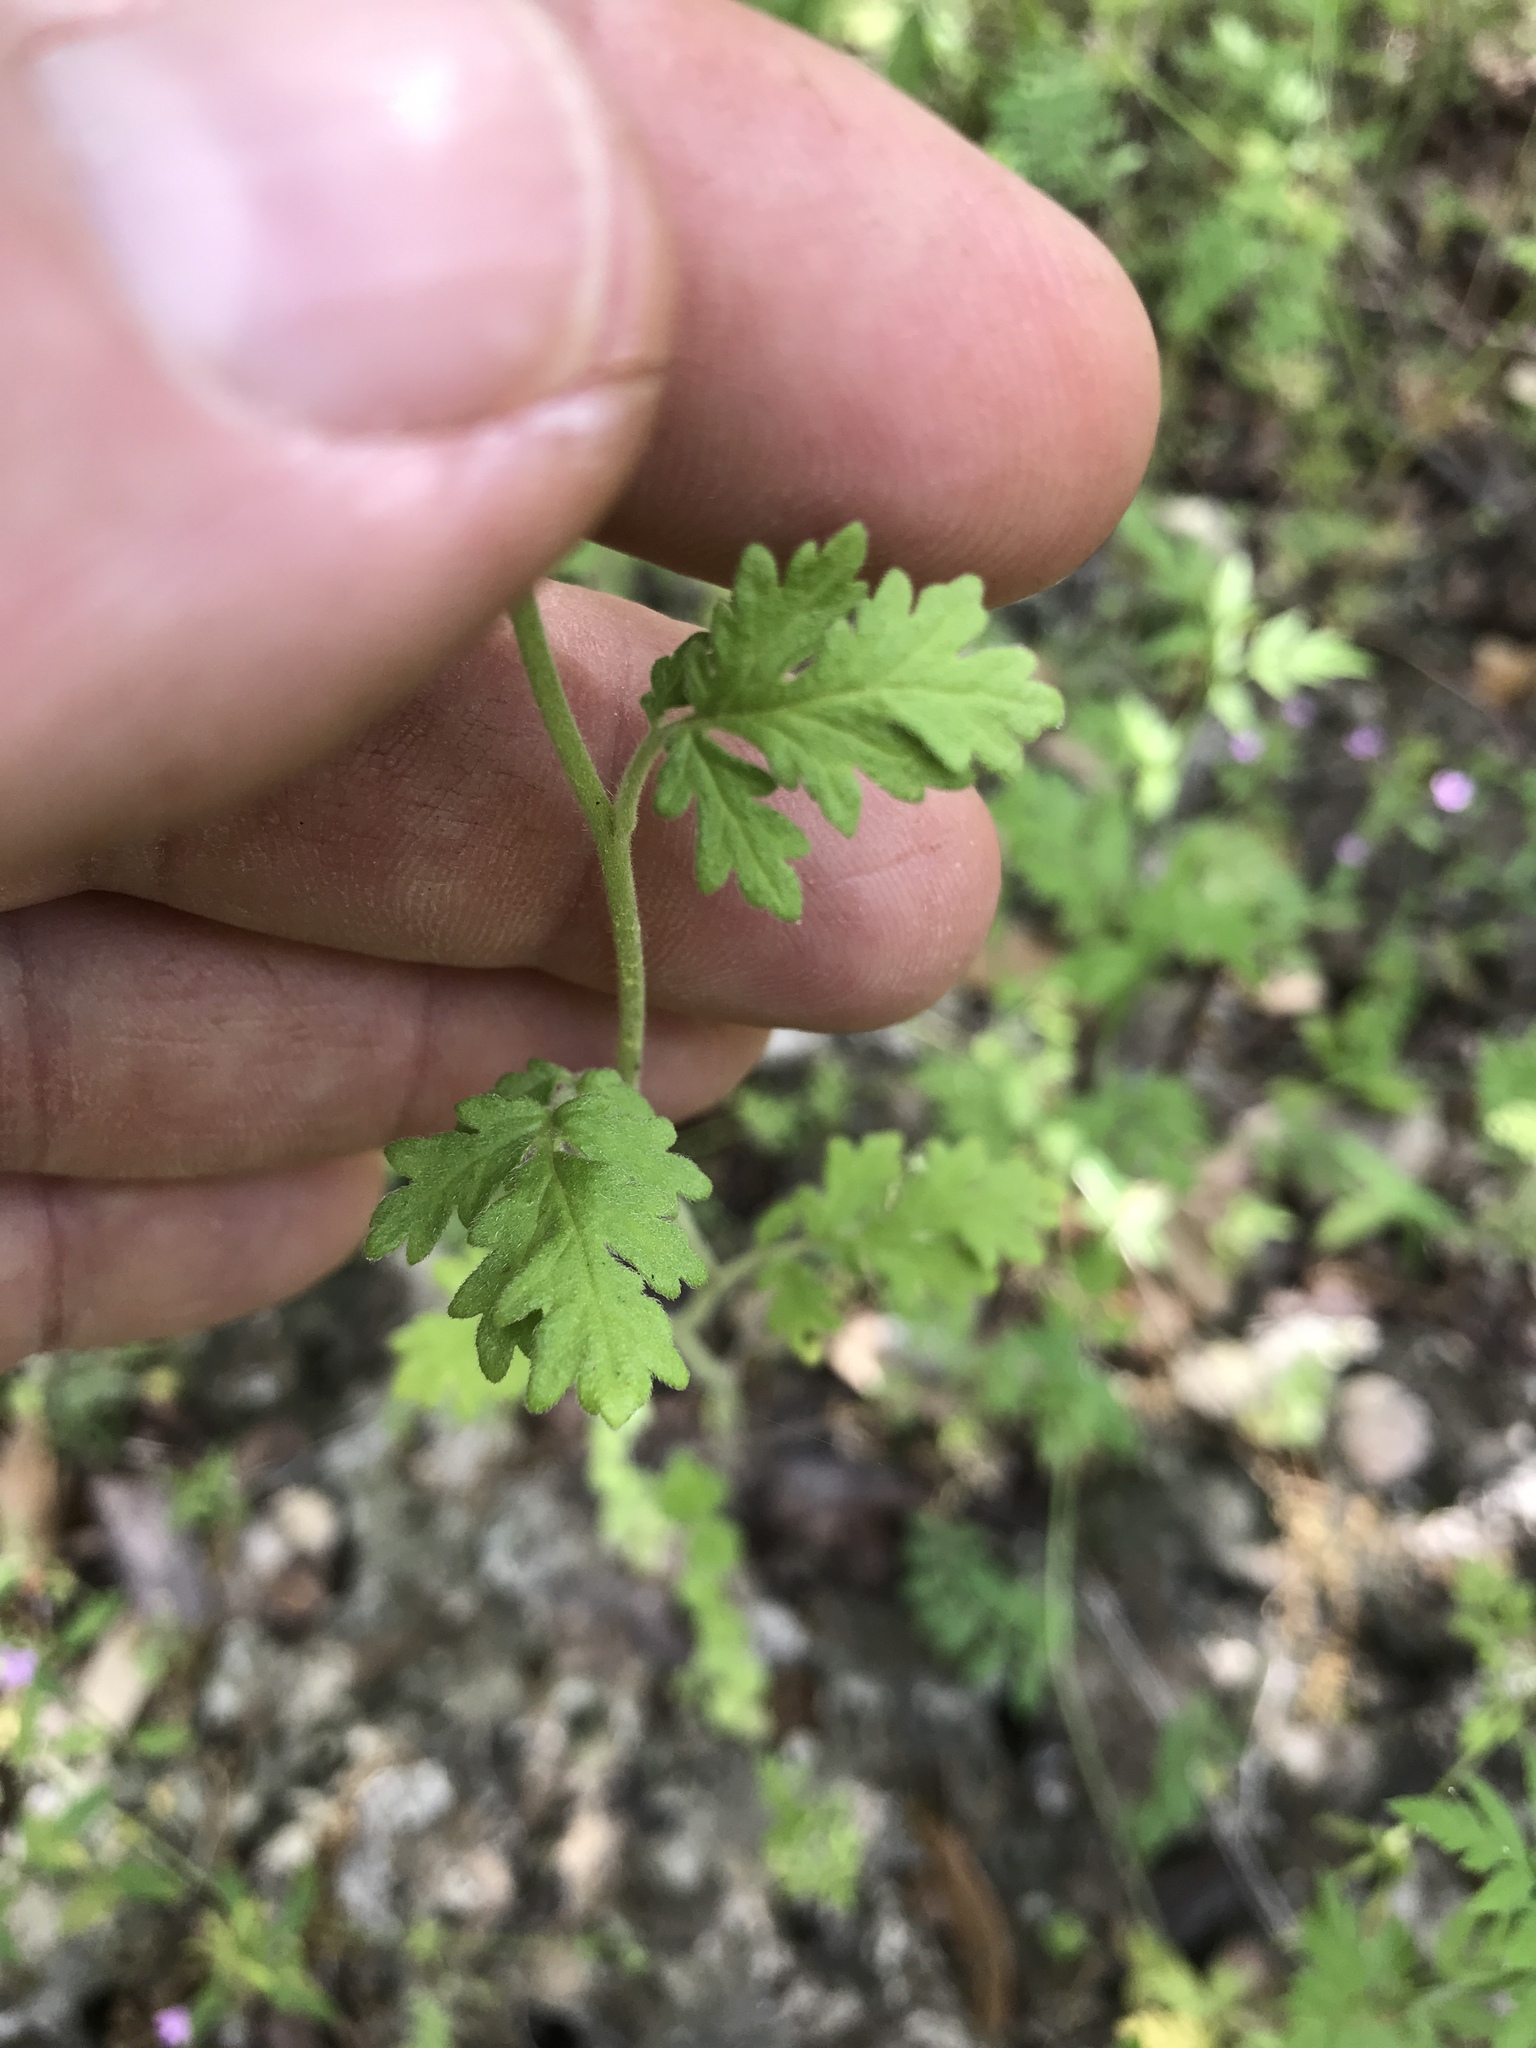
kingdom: Plantae
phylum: Tracheophyta
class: Magnoliopsida
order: Boraginales
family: Hydrophyllaceae
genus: Phacelia
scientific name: Phacelia congesta
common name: Blue curls
